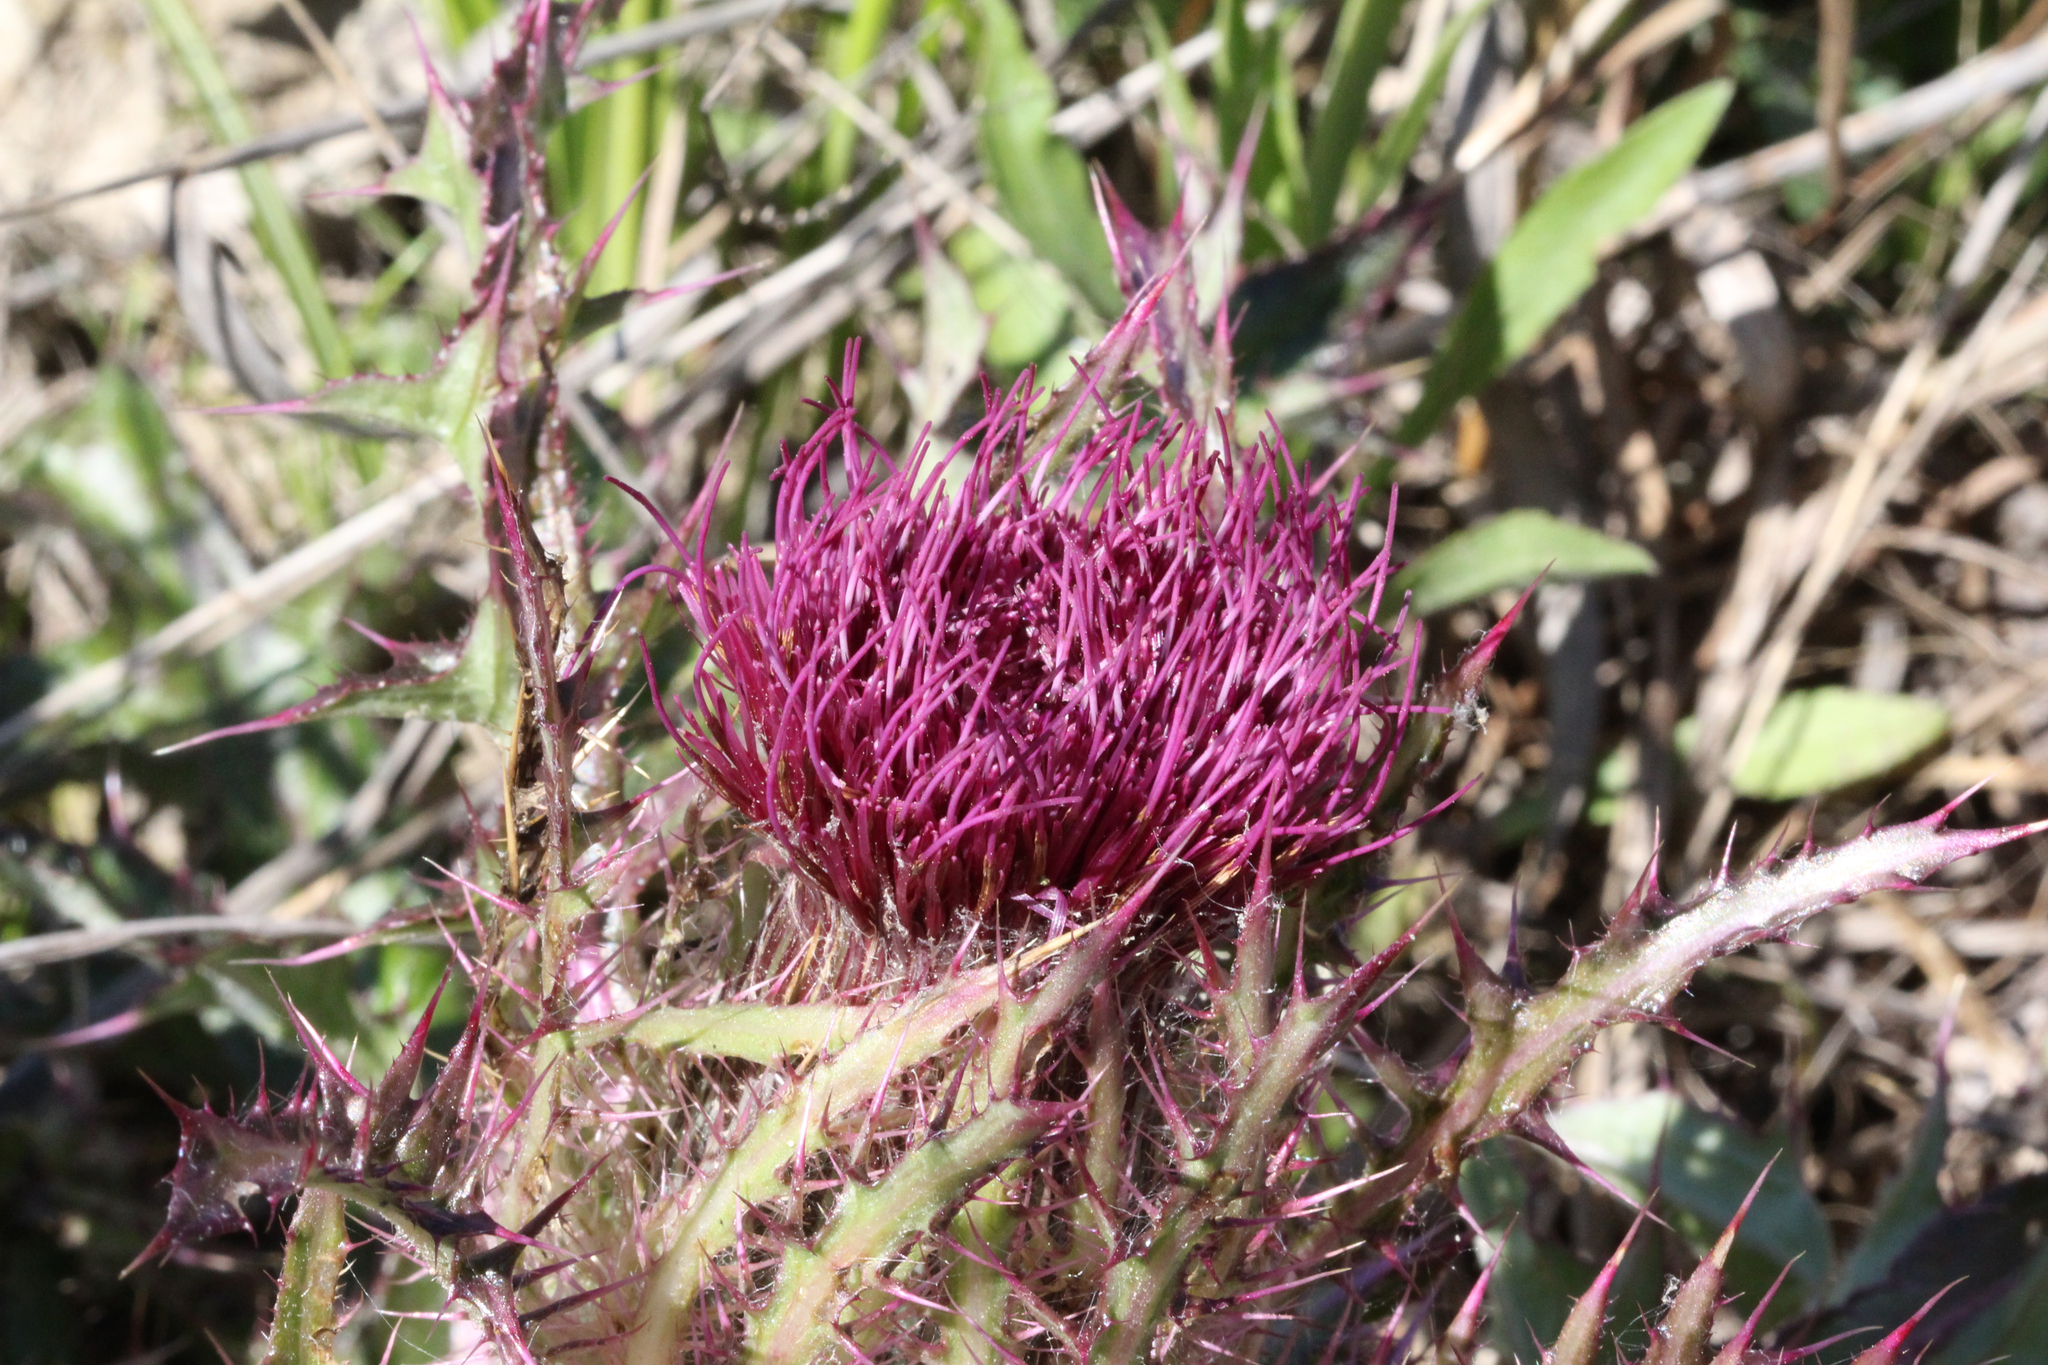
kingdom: Plantae
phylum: Tracheophyta
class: Magnoliopsida
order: Asterales
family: Asteraceae
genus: Cirsium
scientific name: Cirsium horridulum
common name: Bristly thistle
